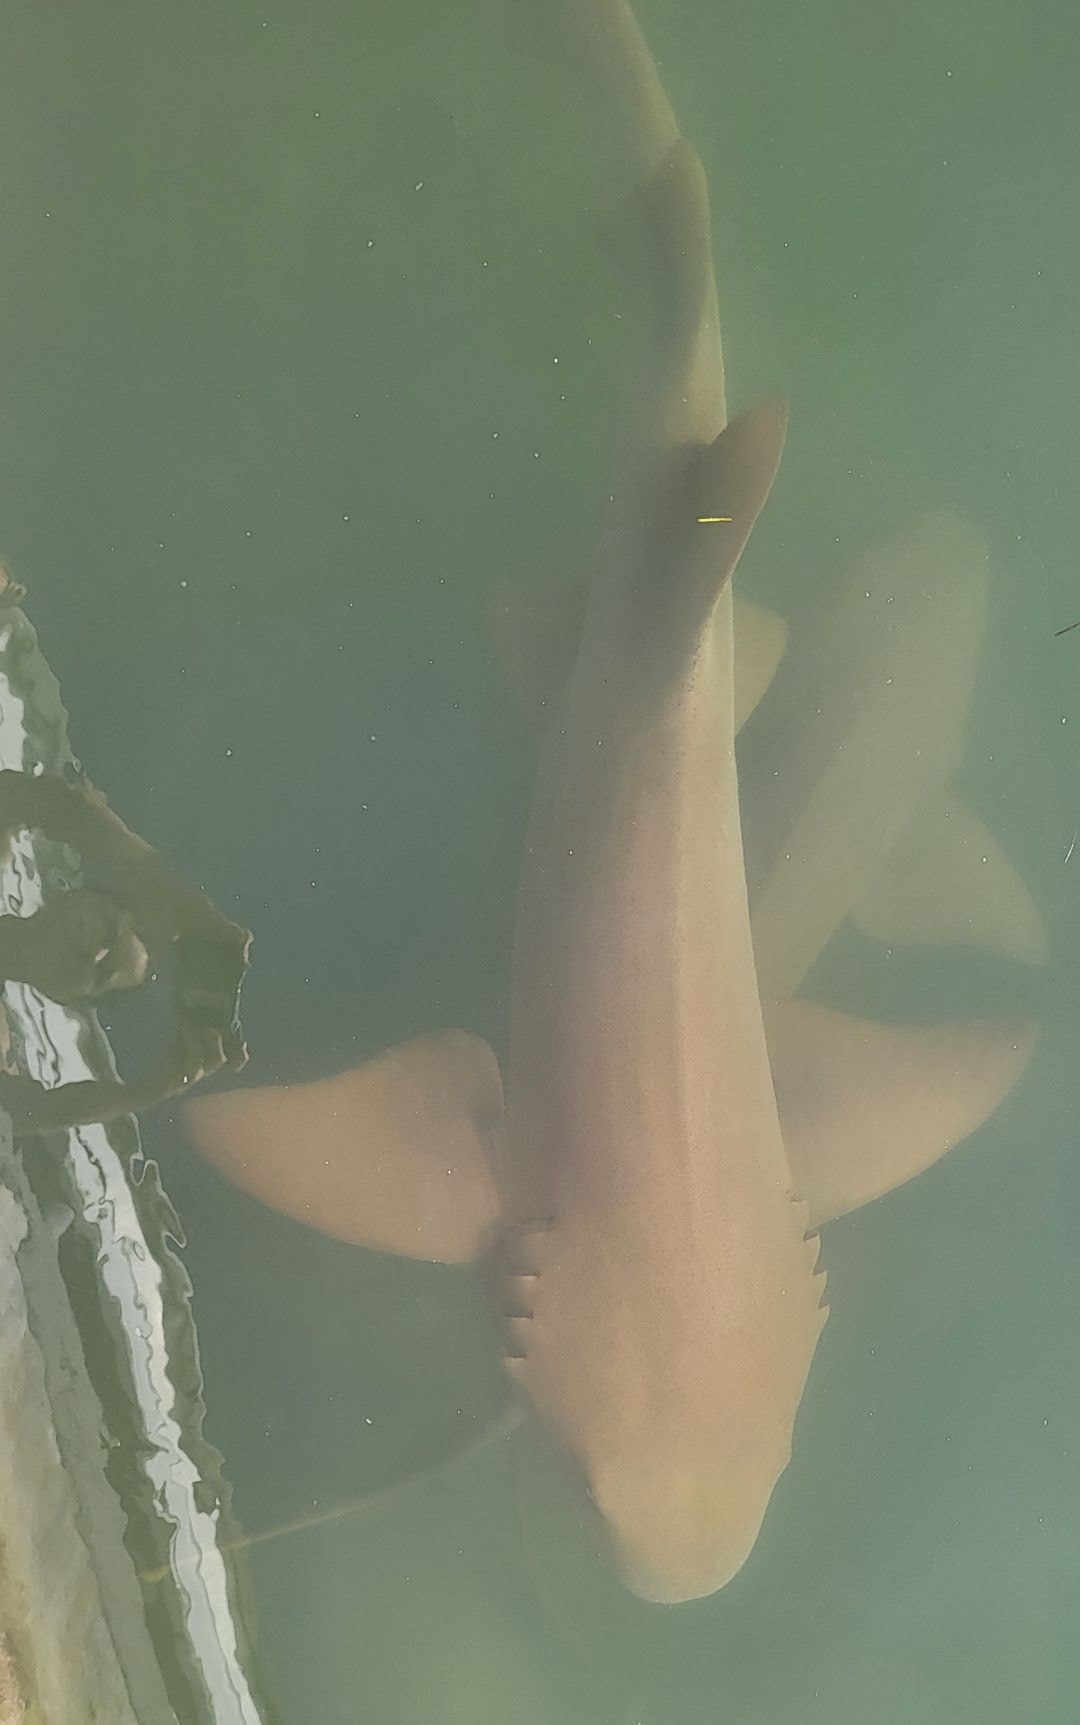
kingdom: Animalia
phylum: Chordata
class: Elasmobranchii
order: Orectolobiformes
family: Ginglymostomatidae
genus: Ginglymostoma
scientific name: Ginglymostoma cirratum
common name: Nurse shark
